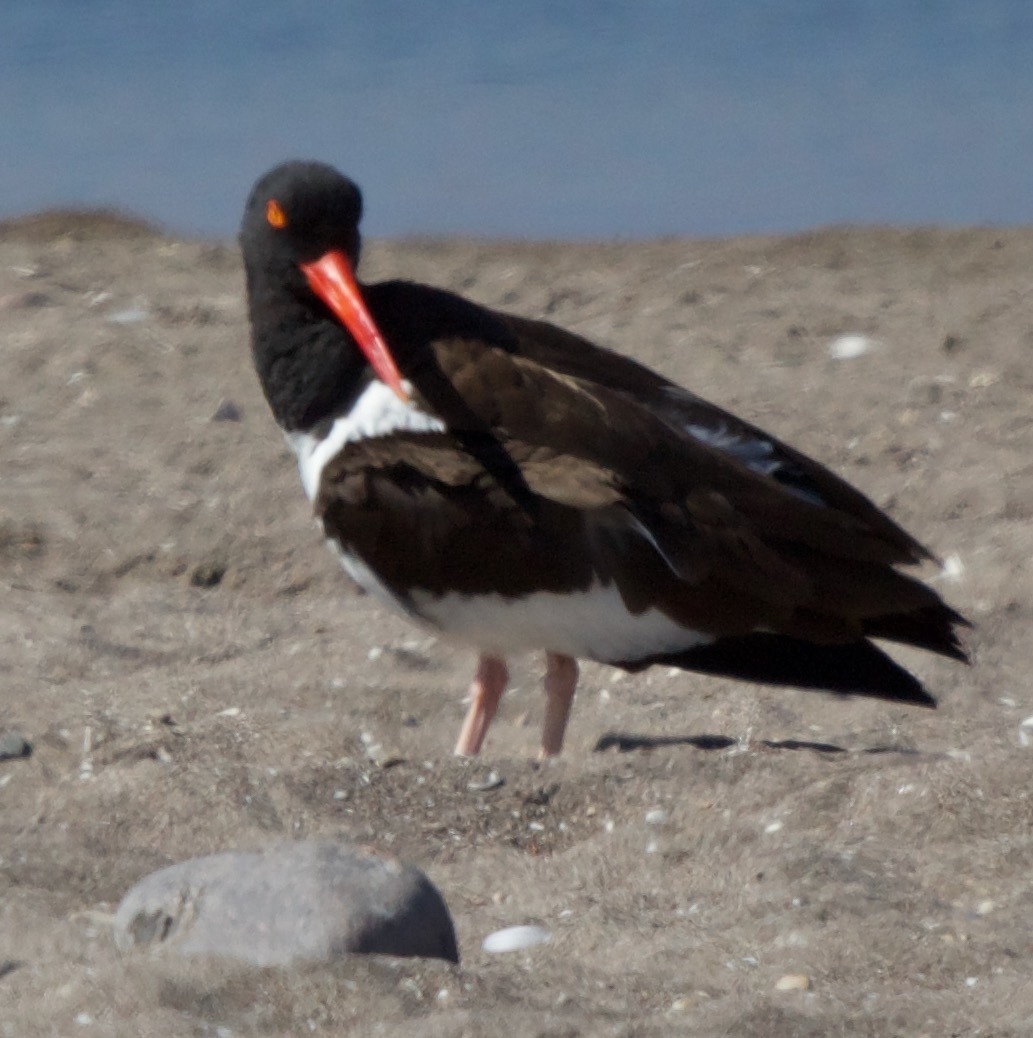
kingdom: Animalia
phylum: Chordata
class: Aves
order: Charadriiformes
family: Haematopodidae
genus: Haematopus
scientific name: Haematopus palliatus
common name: American oystercatcher
